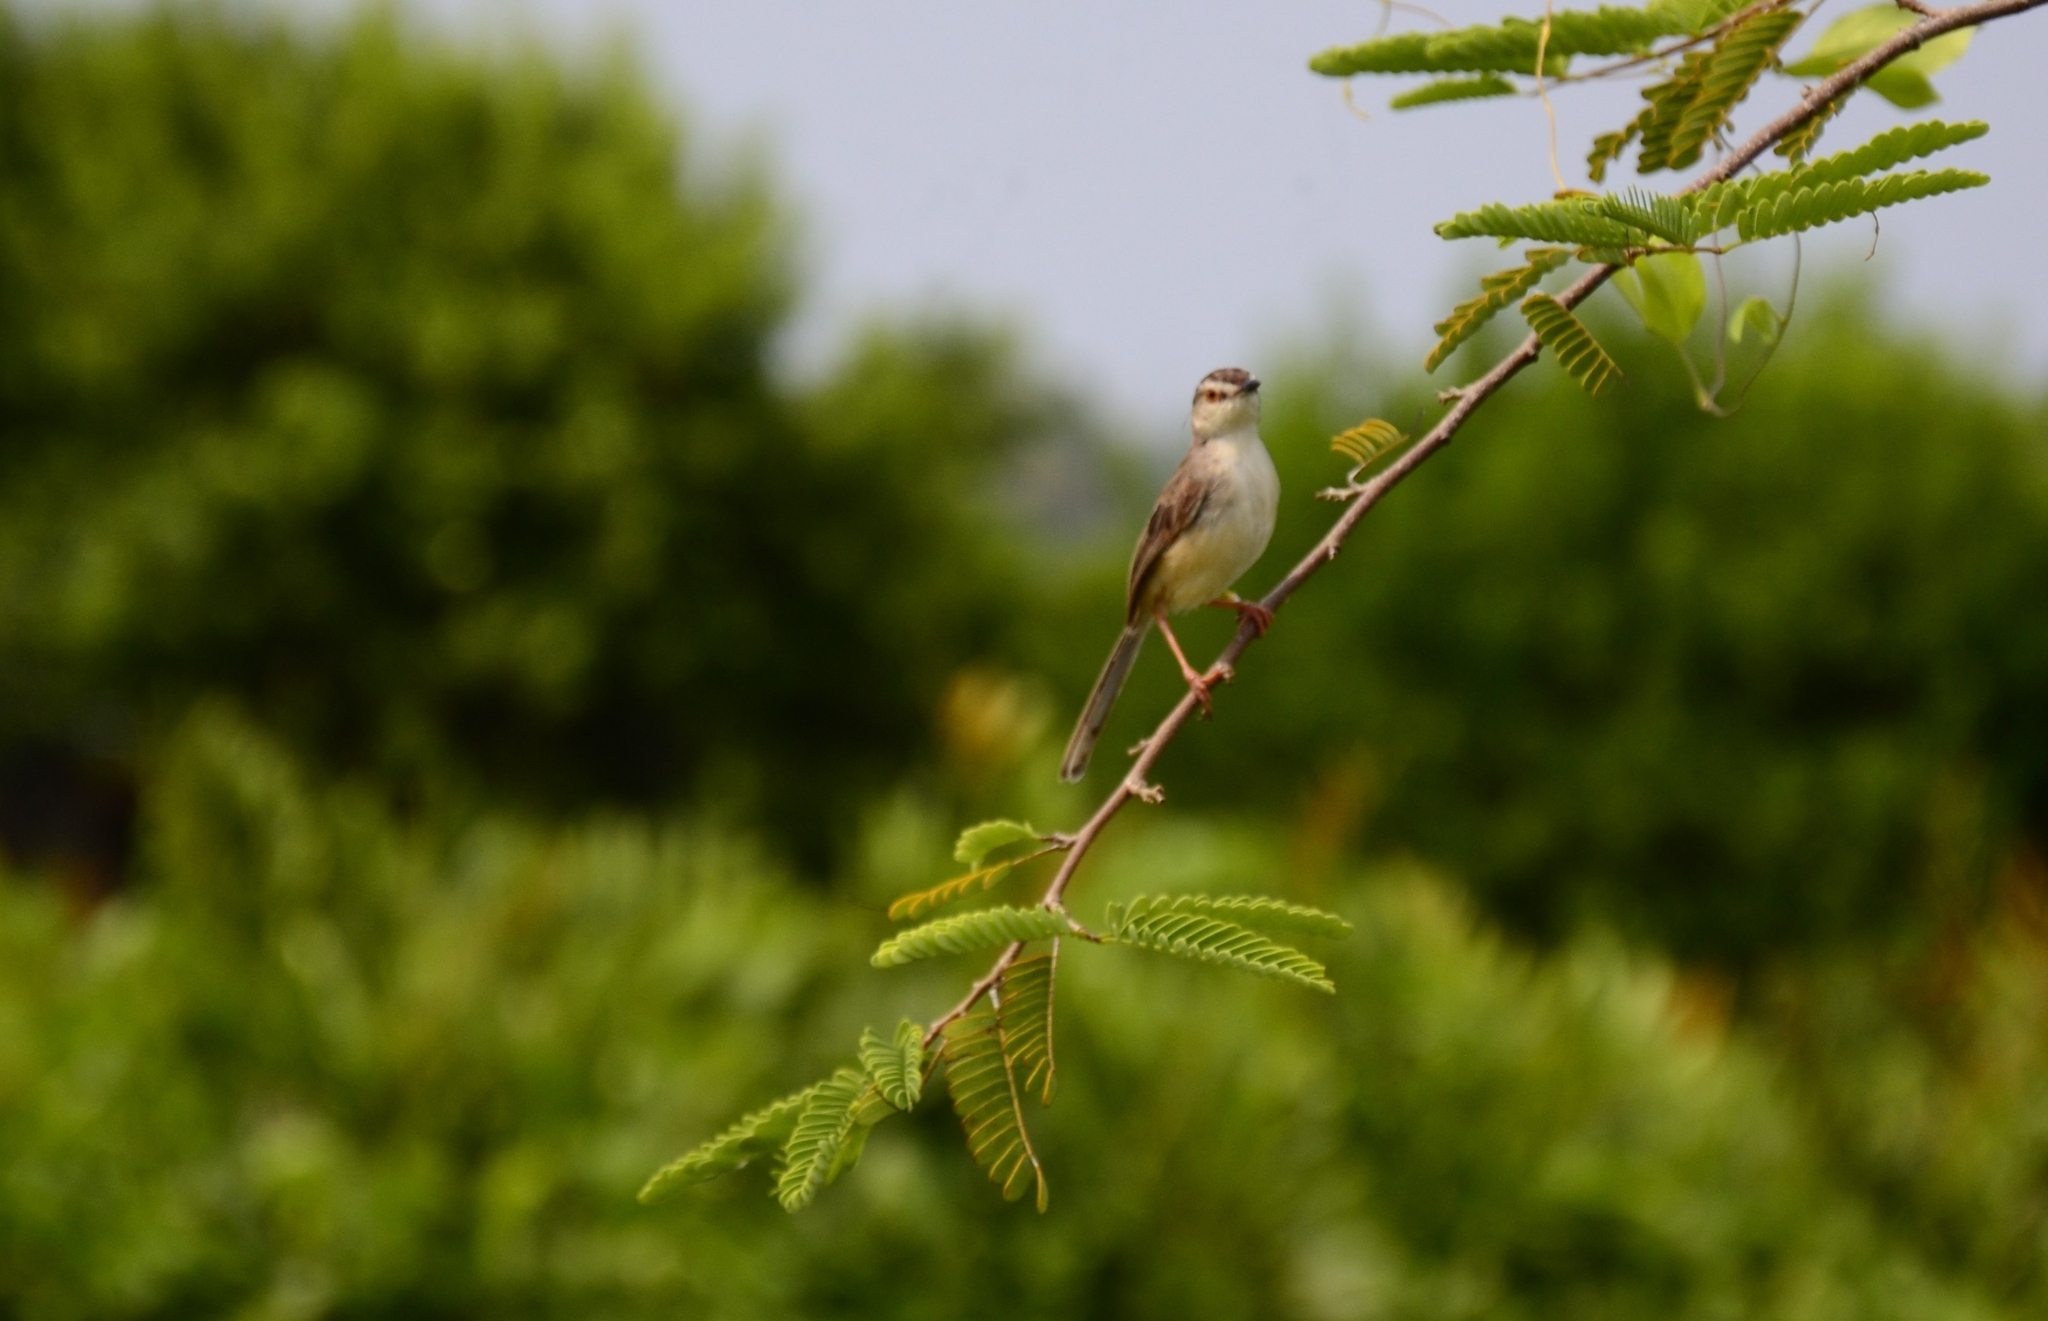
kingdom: Animalia
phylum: Chordata
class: Aves
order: Passeriformes
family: Cisticolidae
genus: Prinia
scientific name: Prinia inornata
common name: Plain prinia
